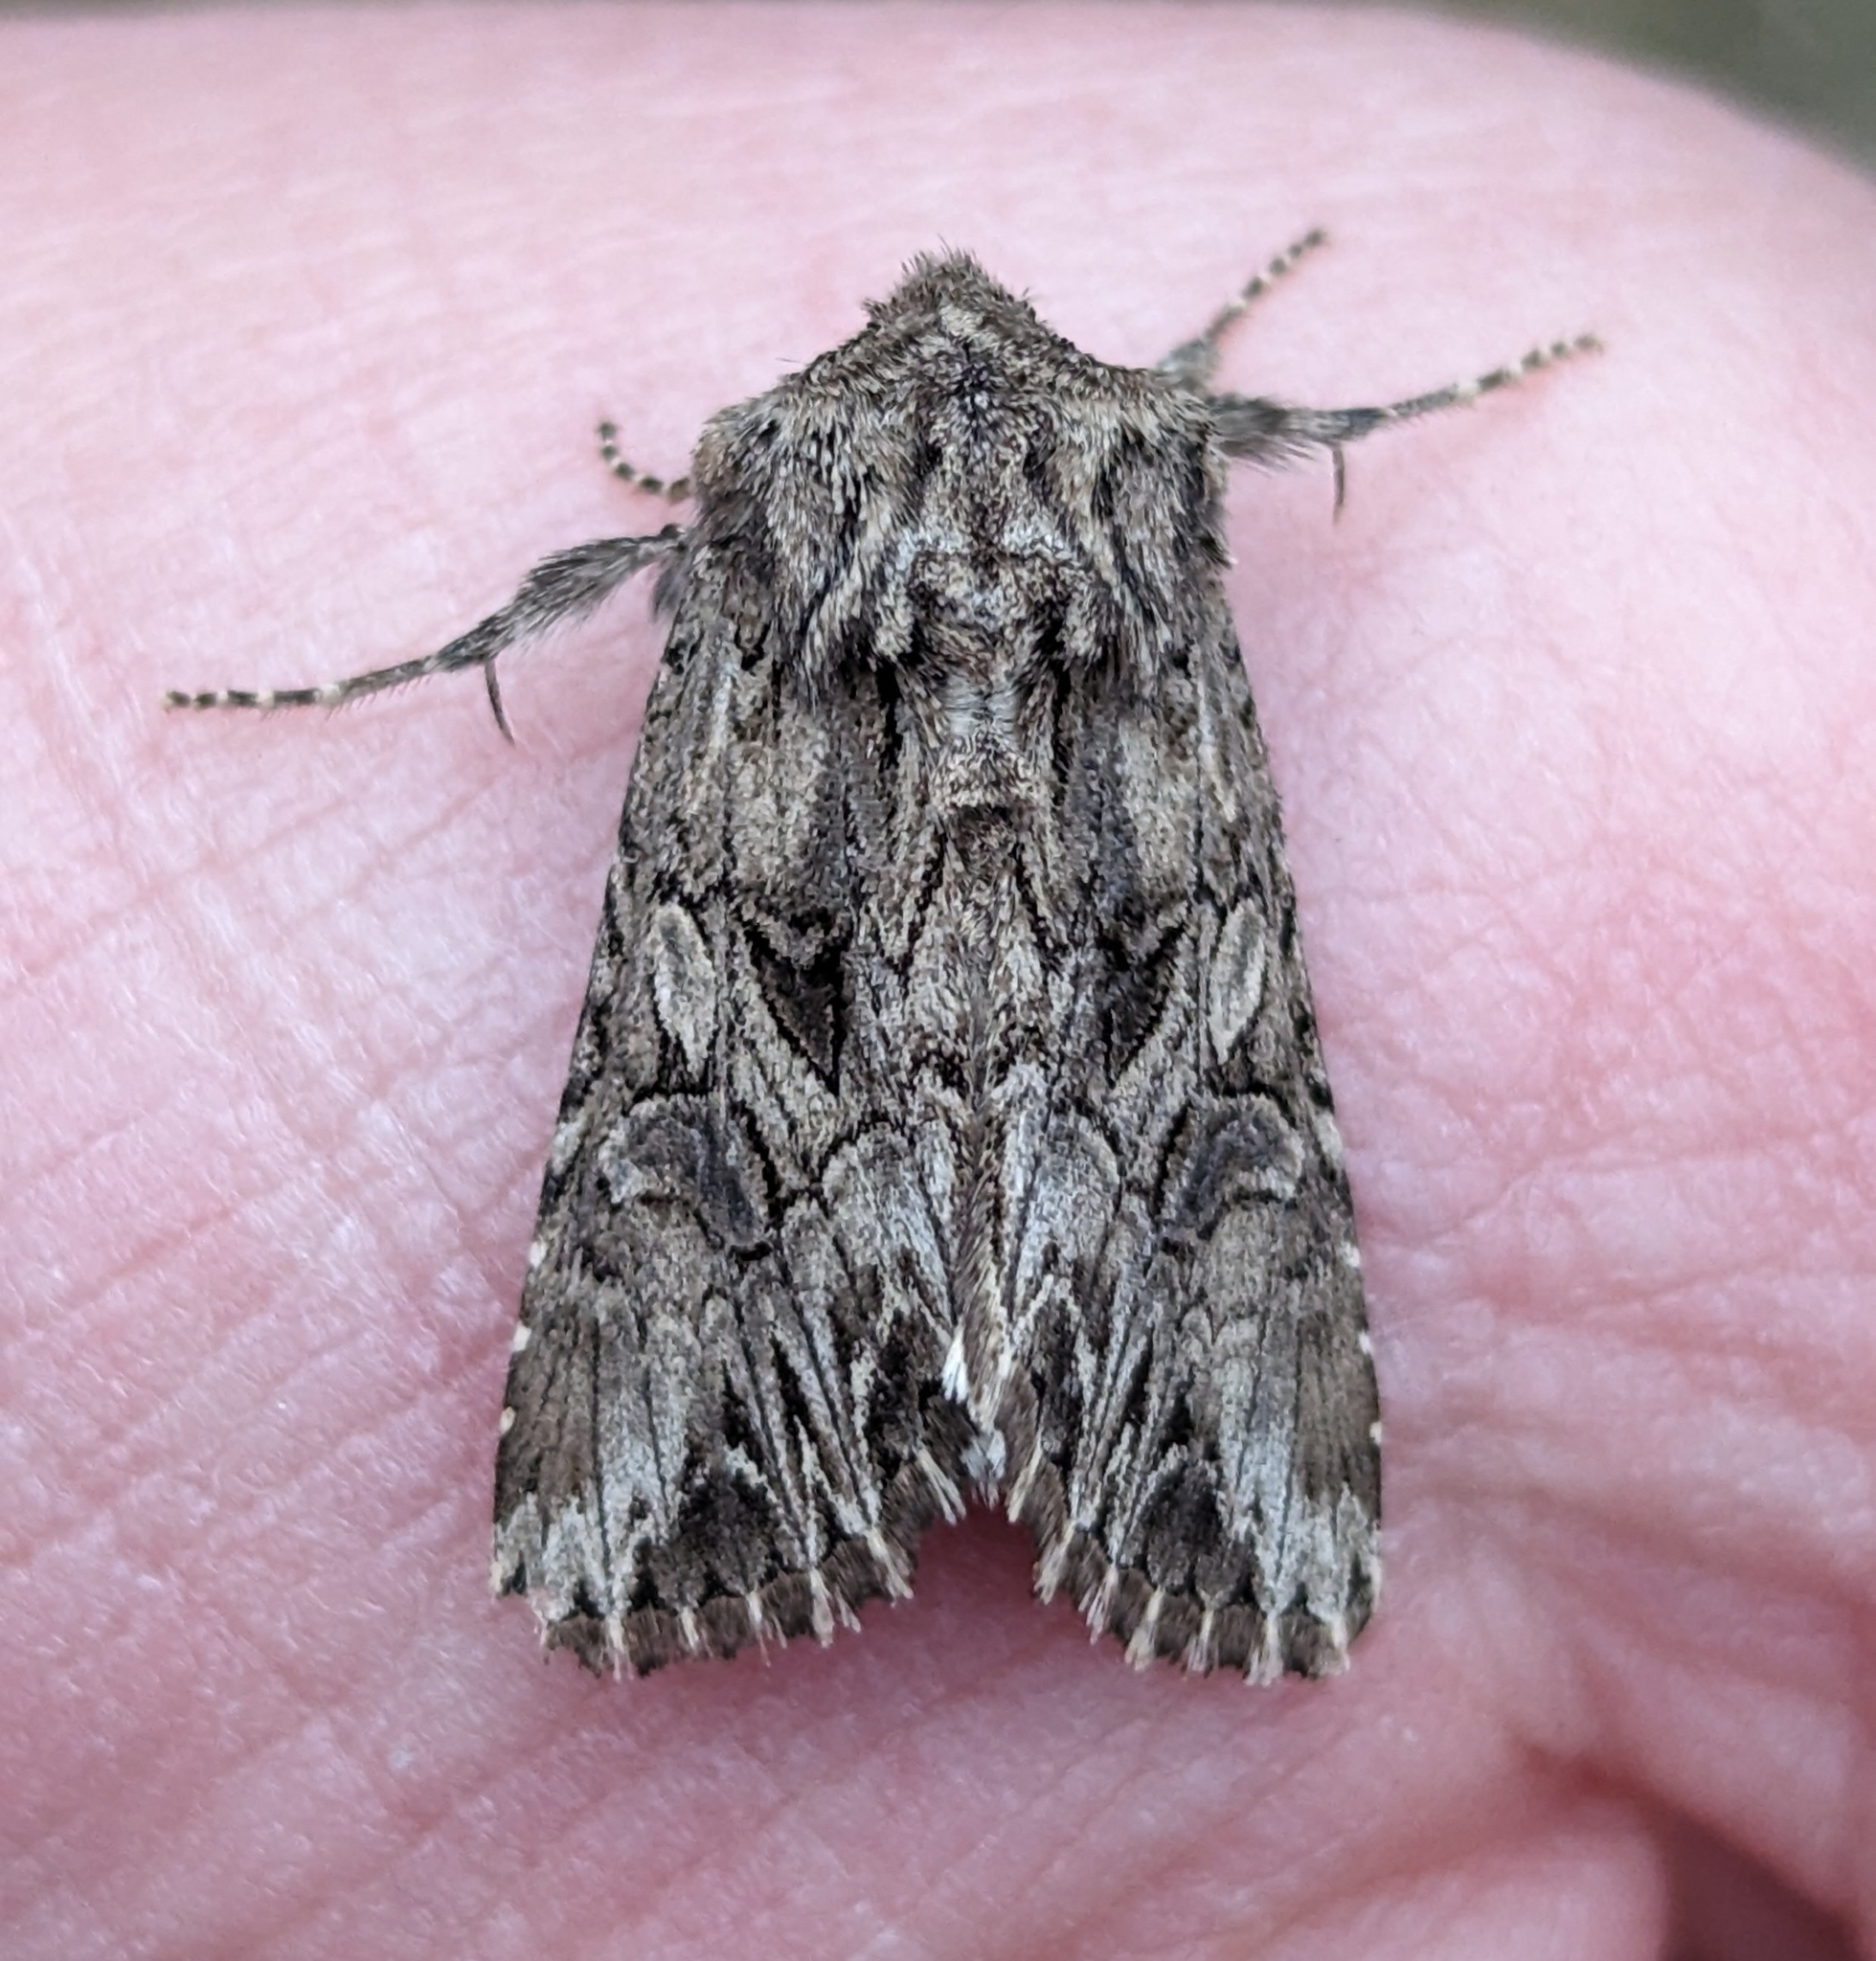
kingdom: Animalia
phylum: Arthropoda
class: Insecta
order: Lepidoptera
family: Noctuidae
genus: Anarta
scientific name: Anarta crotchii
